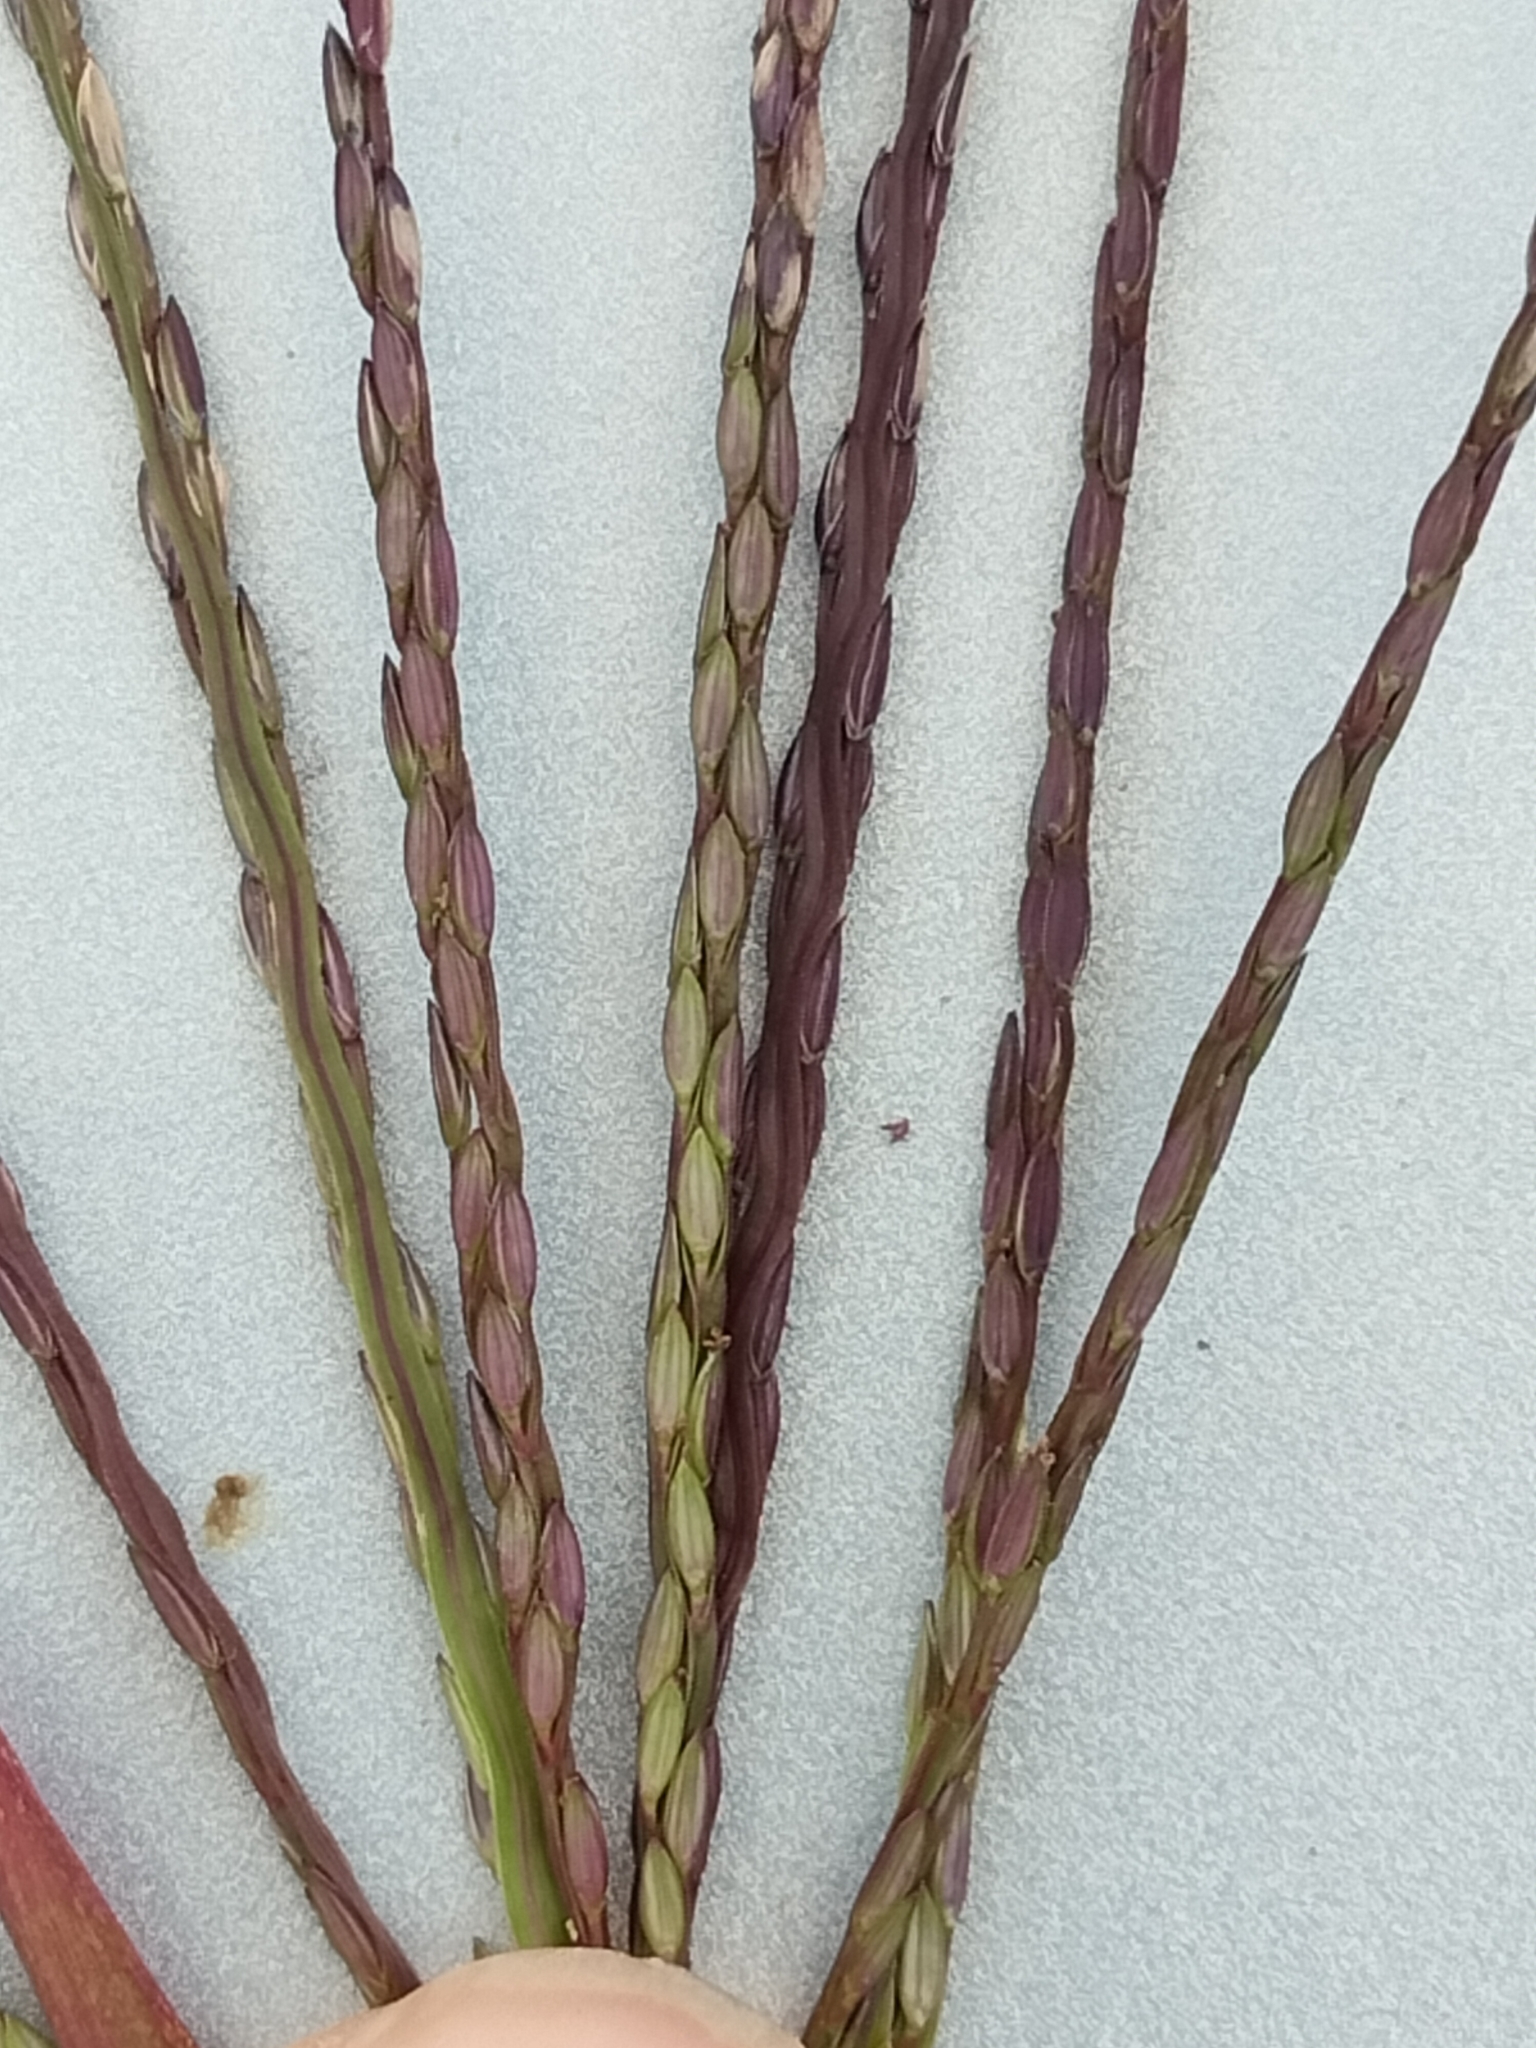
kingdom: Plantae
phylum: Tracheophyta
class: Liliopsida
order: Poales
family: Poaceae
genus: Digitaria
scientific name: Digitaria sanguinalis
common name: Hairy crabgrass
